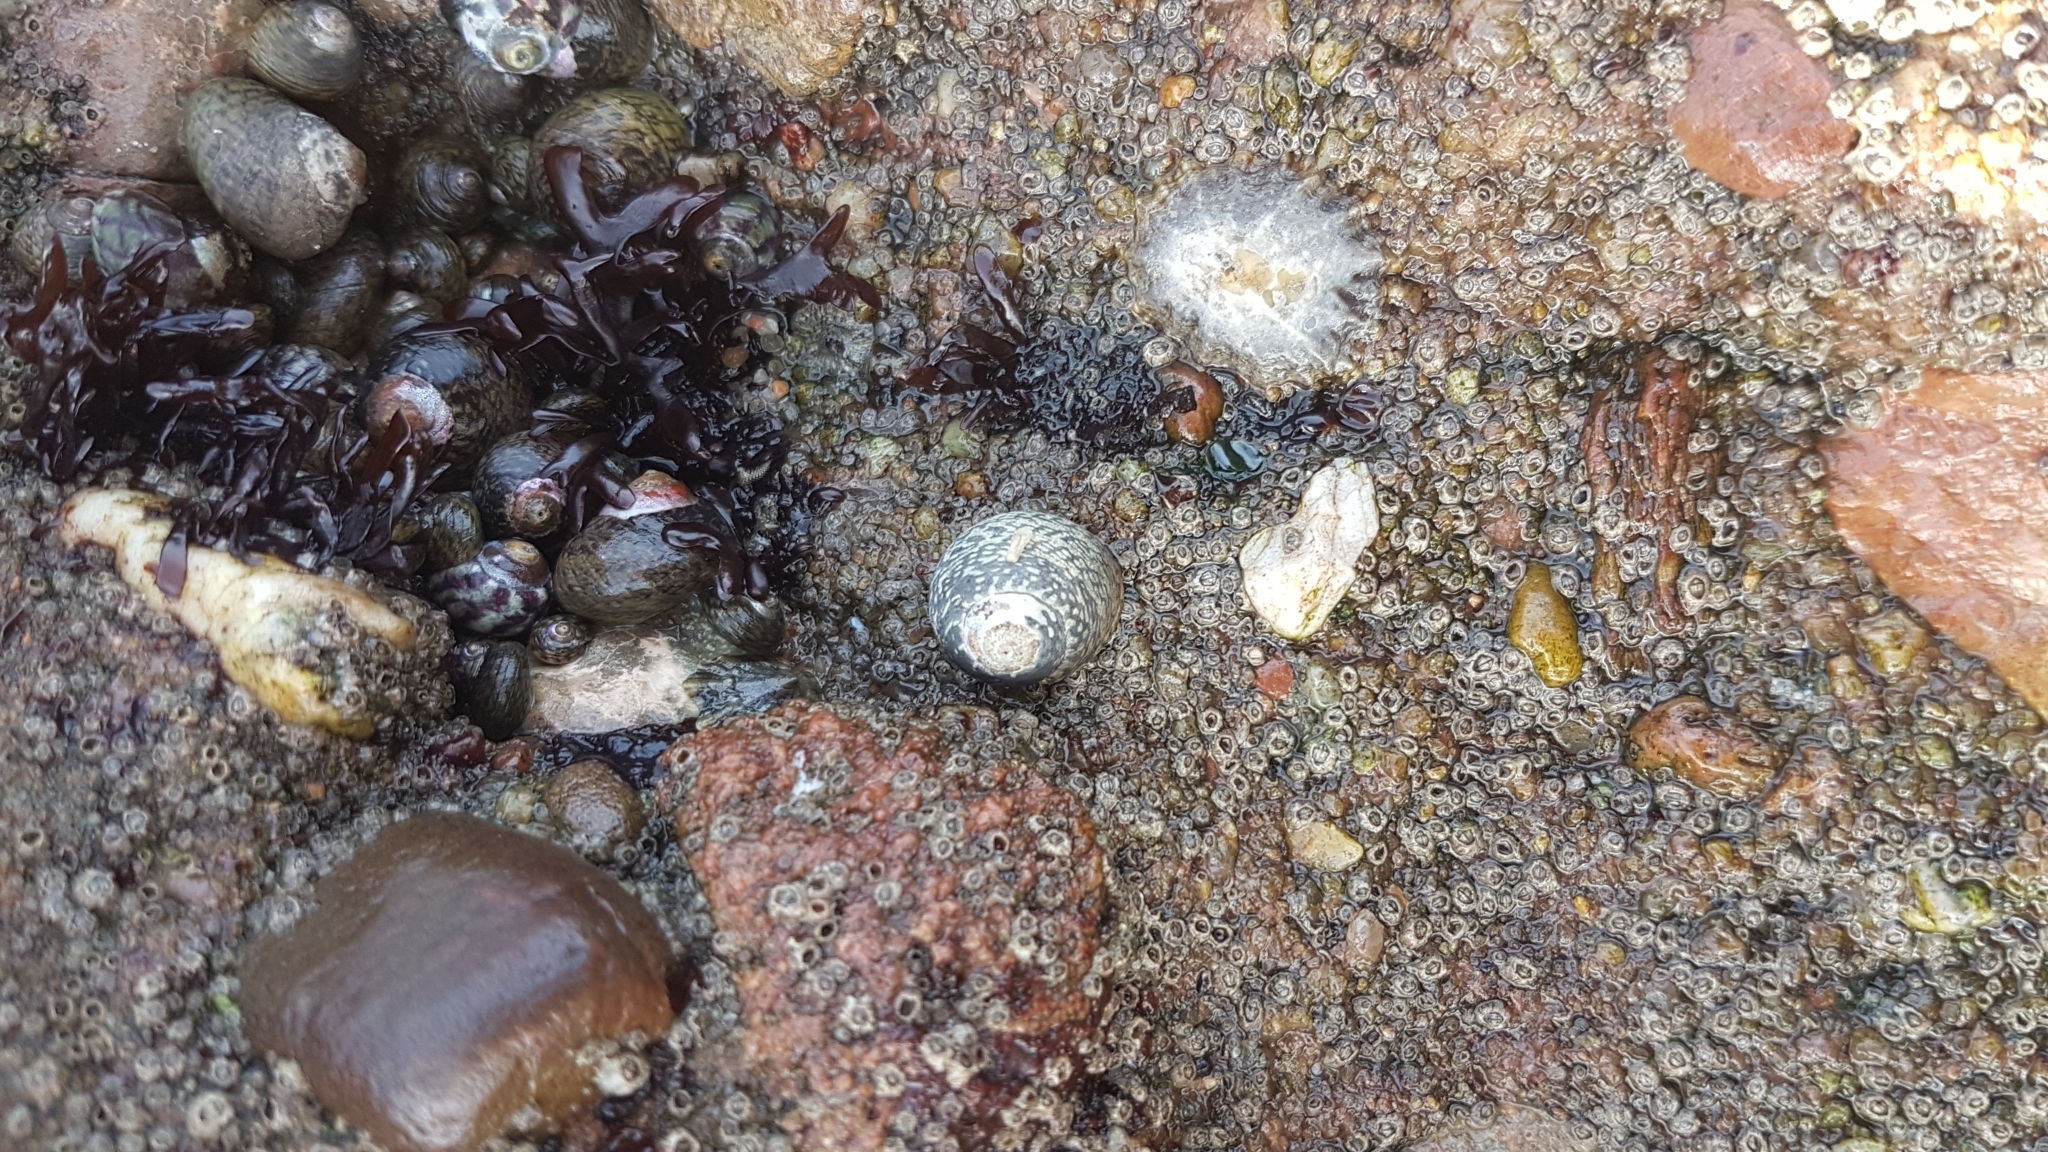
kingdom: Animalia
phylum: Mollusca
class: Gastropoda
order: Trochida
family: Trochidae
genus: Phorcus
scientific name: Phorcus lineatus
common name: Toothed top shell
